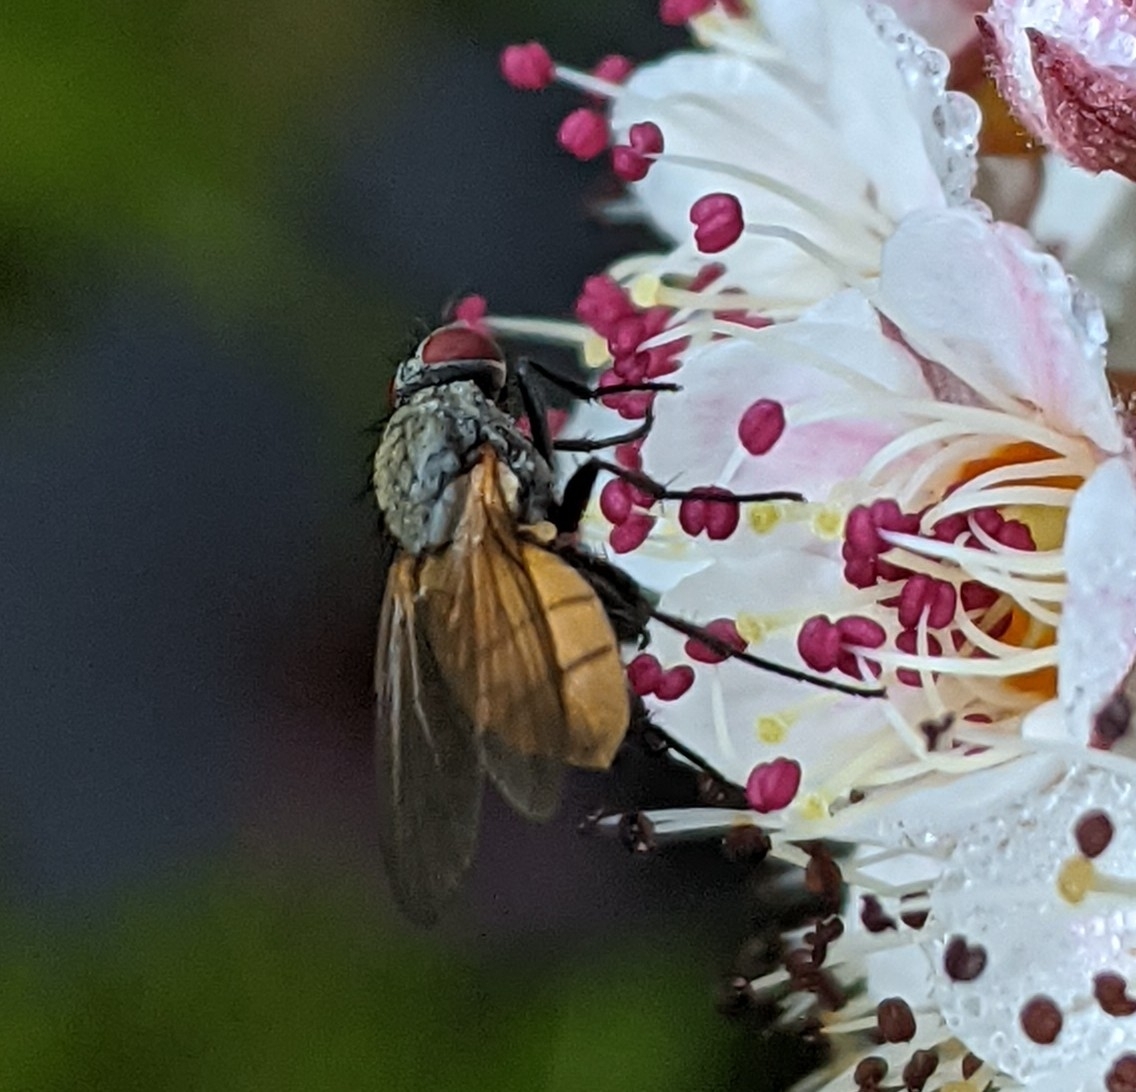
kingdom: Animalia
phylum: Arthropoda
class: Insecta
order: Diptera
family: Muscidae
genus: Thricops
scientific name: Thricops semicinereus
